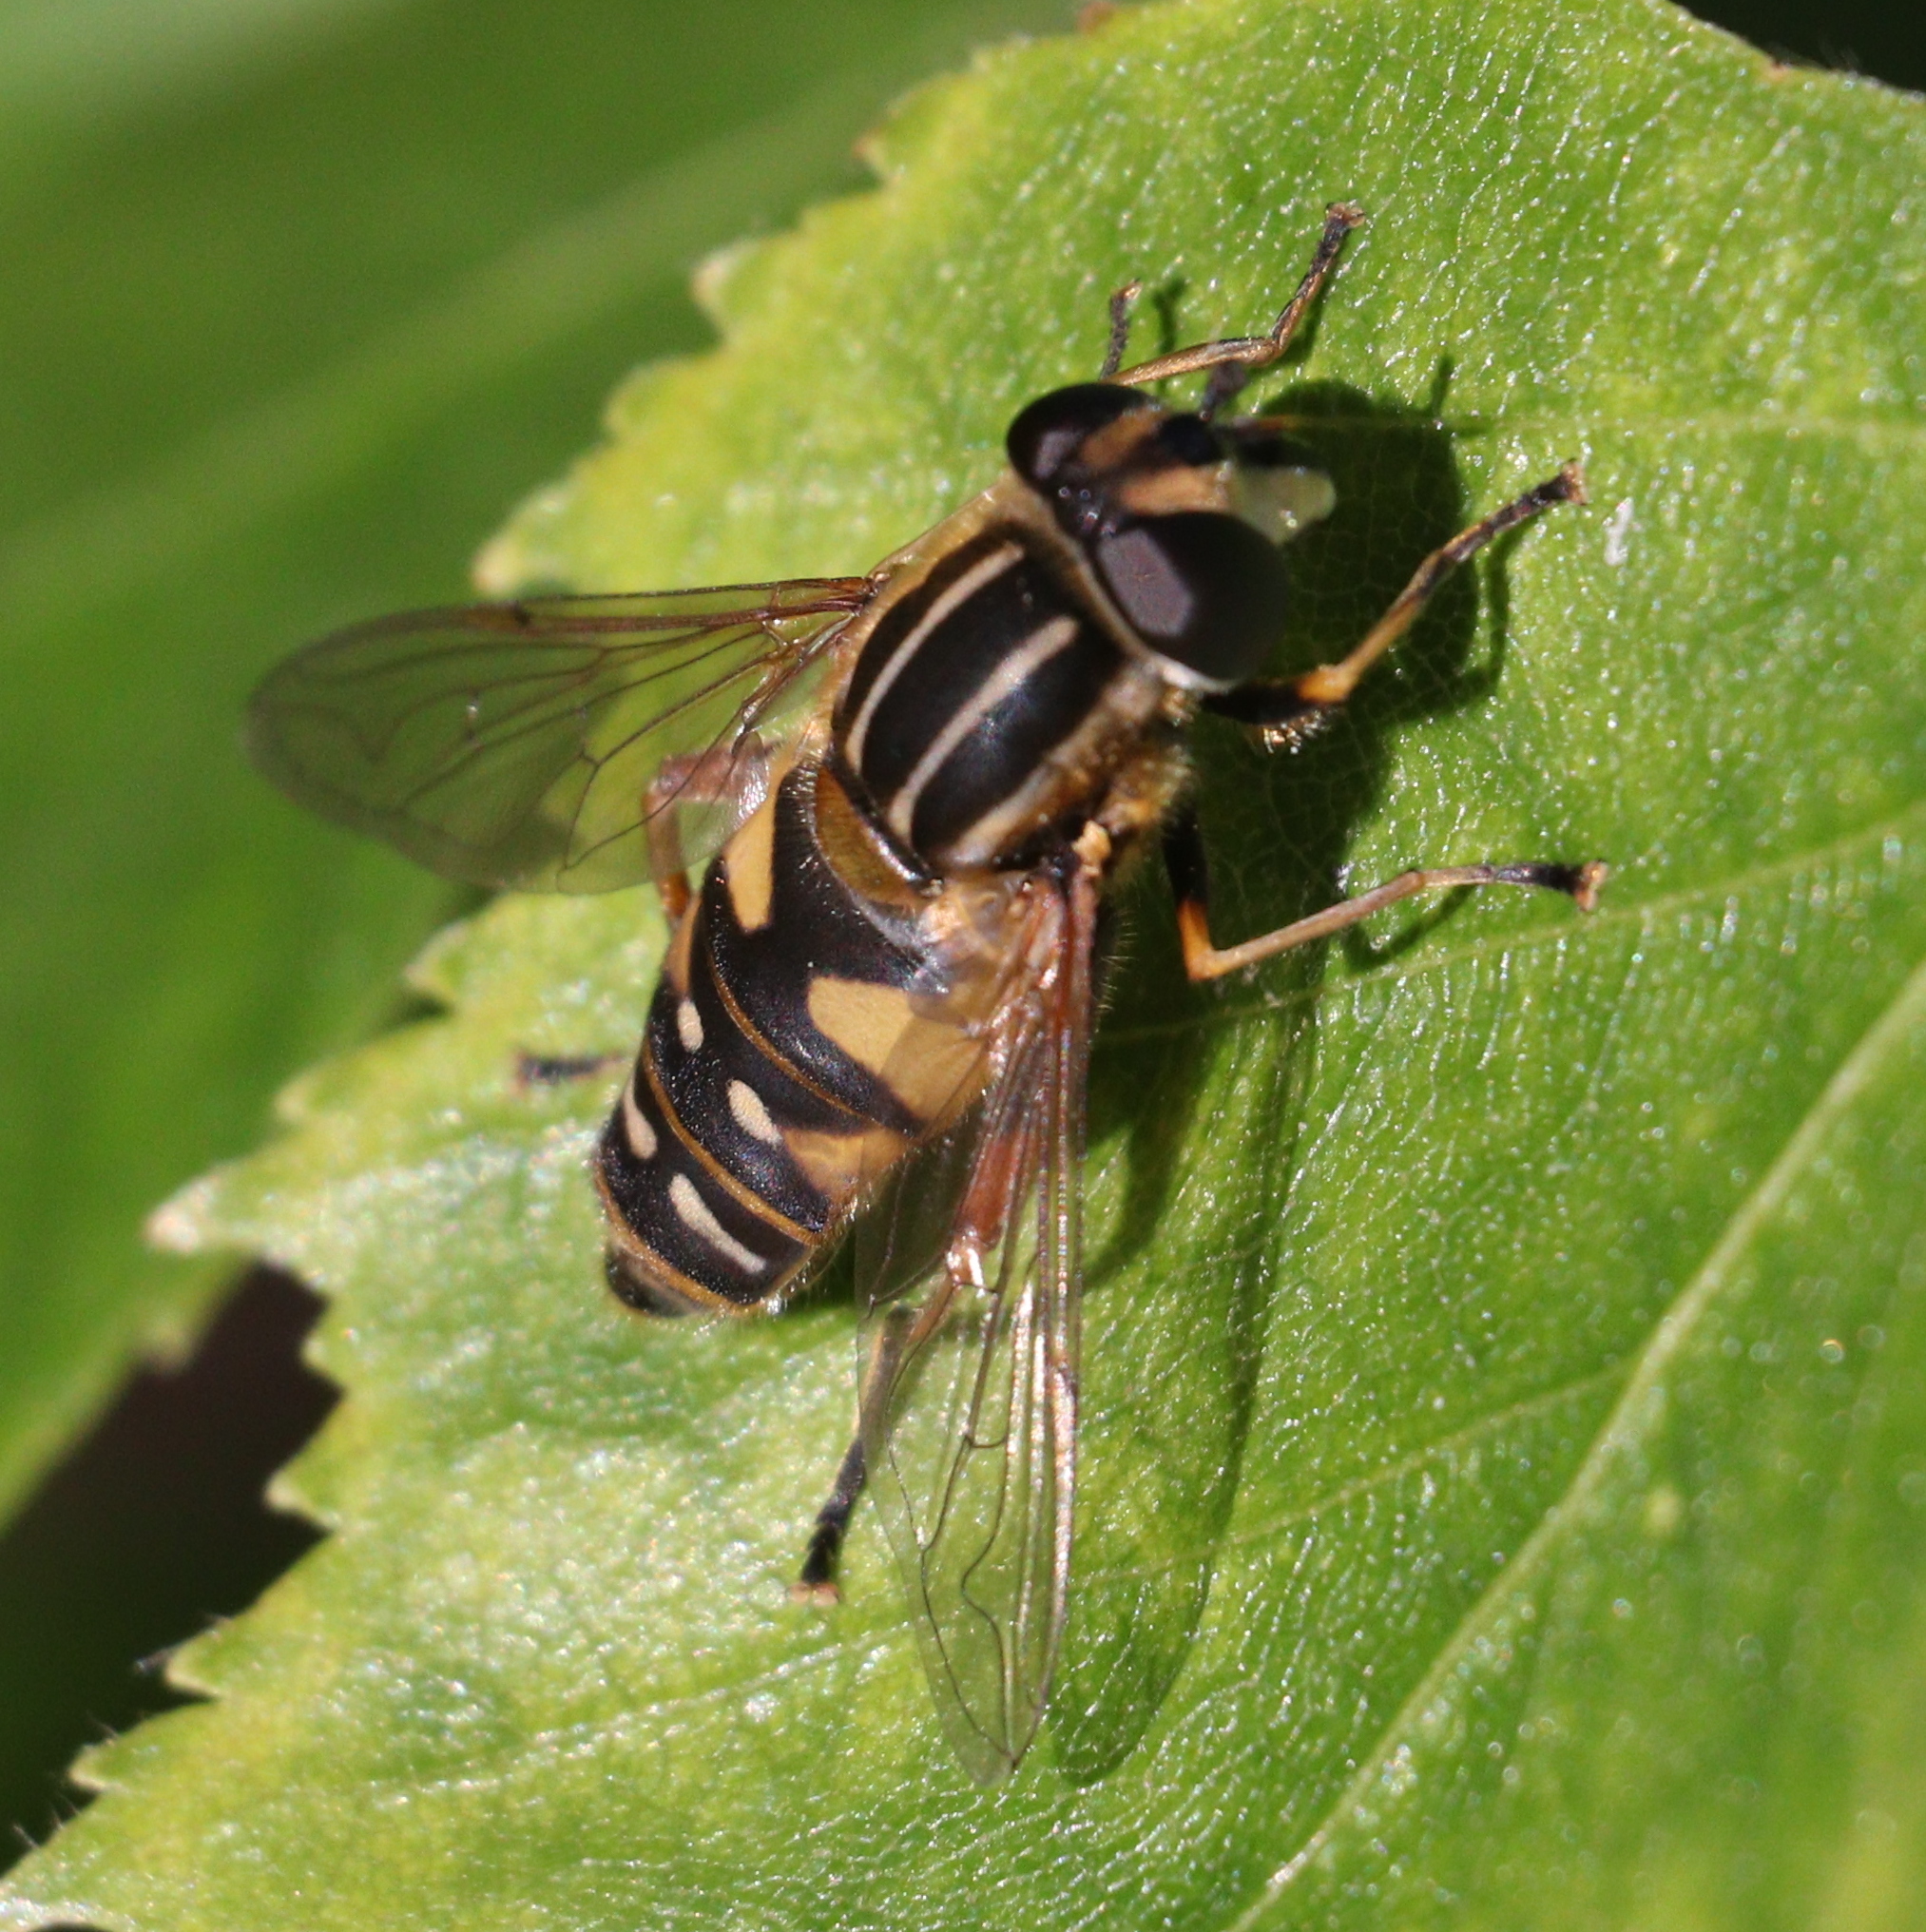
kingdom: Animalia
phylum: Arthropoda
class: Insecta
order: Diptera
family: Syrphidae
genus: Helophilus
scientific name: Helophilus pendulus
